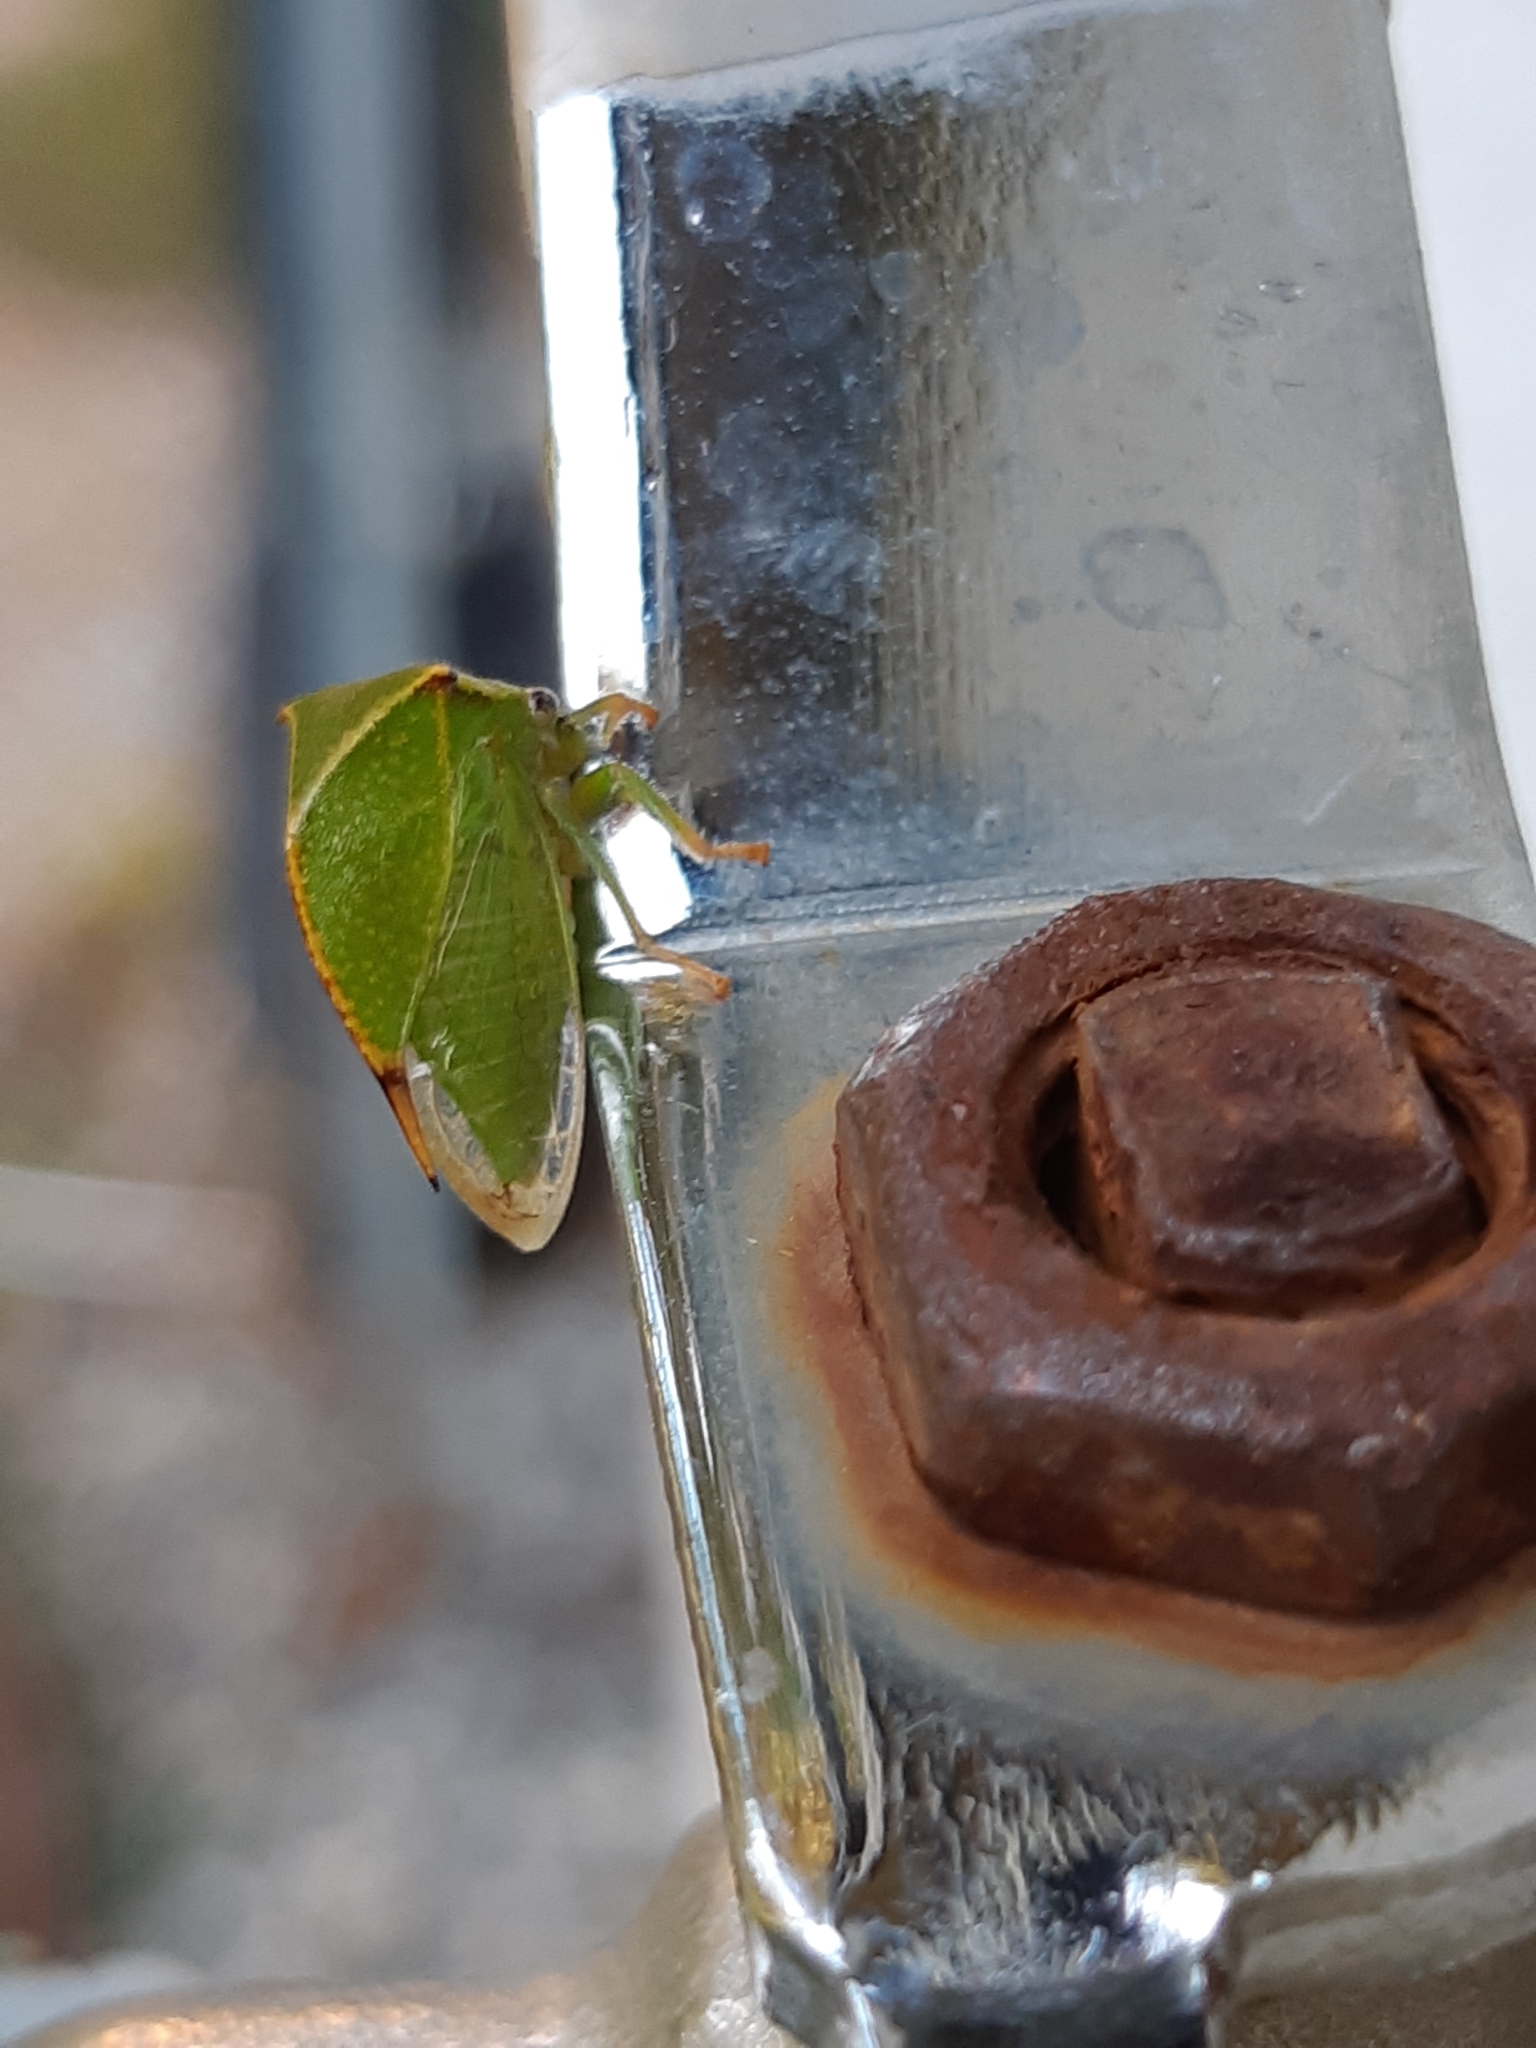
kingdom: Animalia
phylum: Arthropoda
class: Insecta
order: Hemiptera
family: Membracidae
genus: Stictocephala
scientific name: Stictocephala bisonia
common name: American buffalo treehopper
